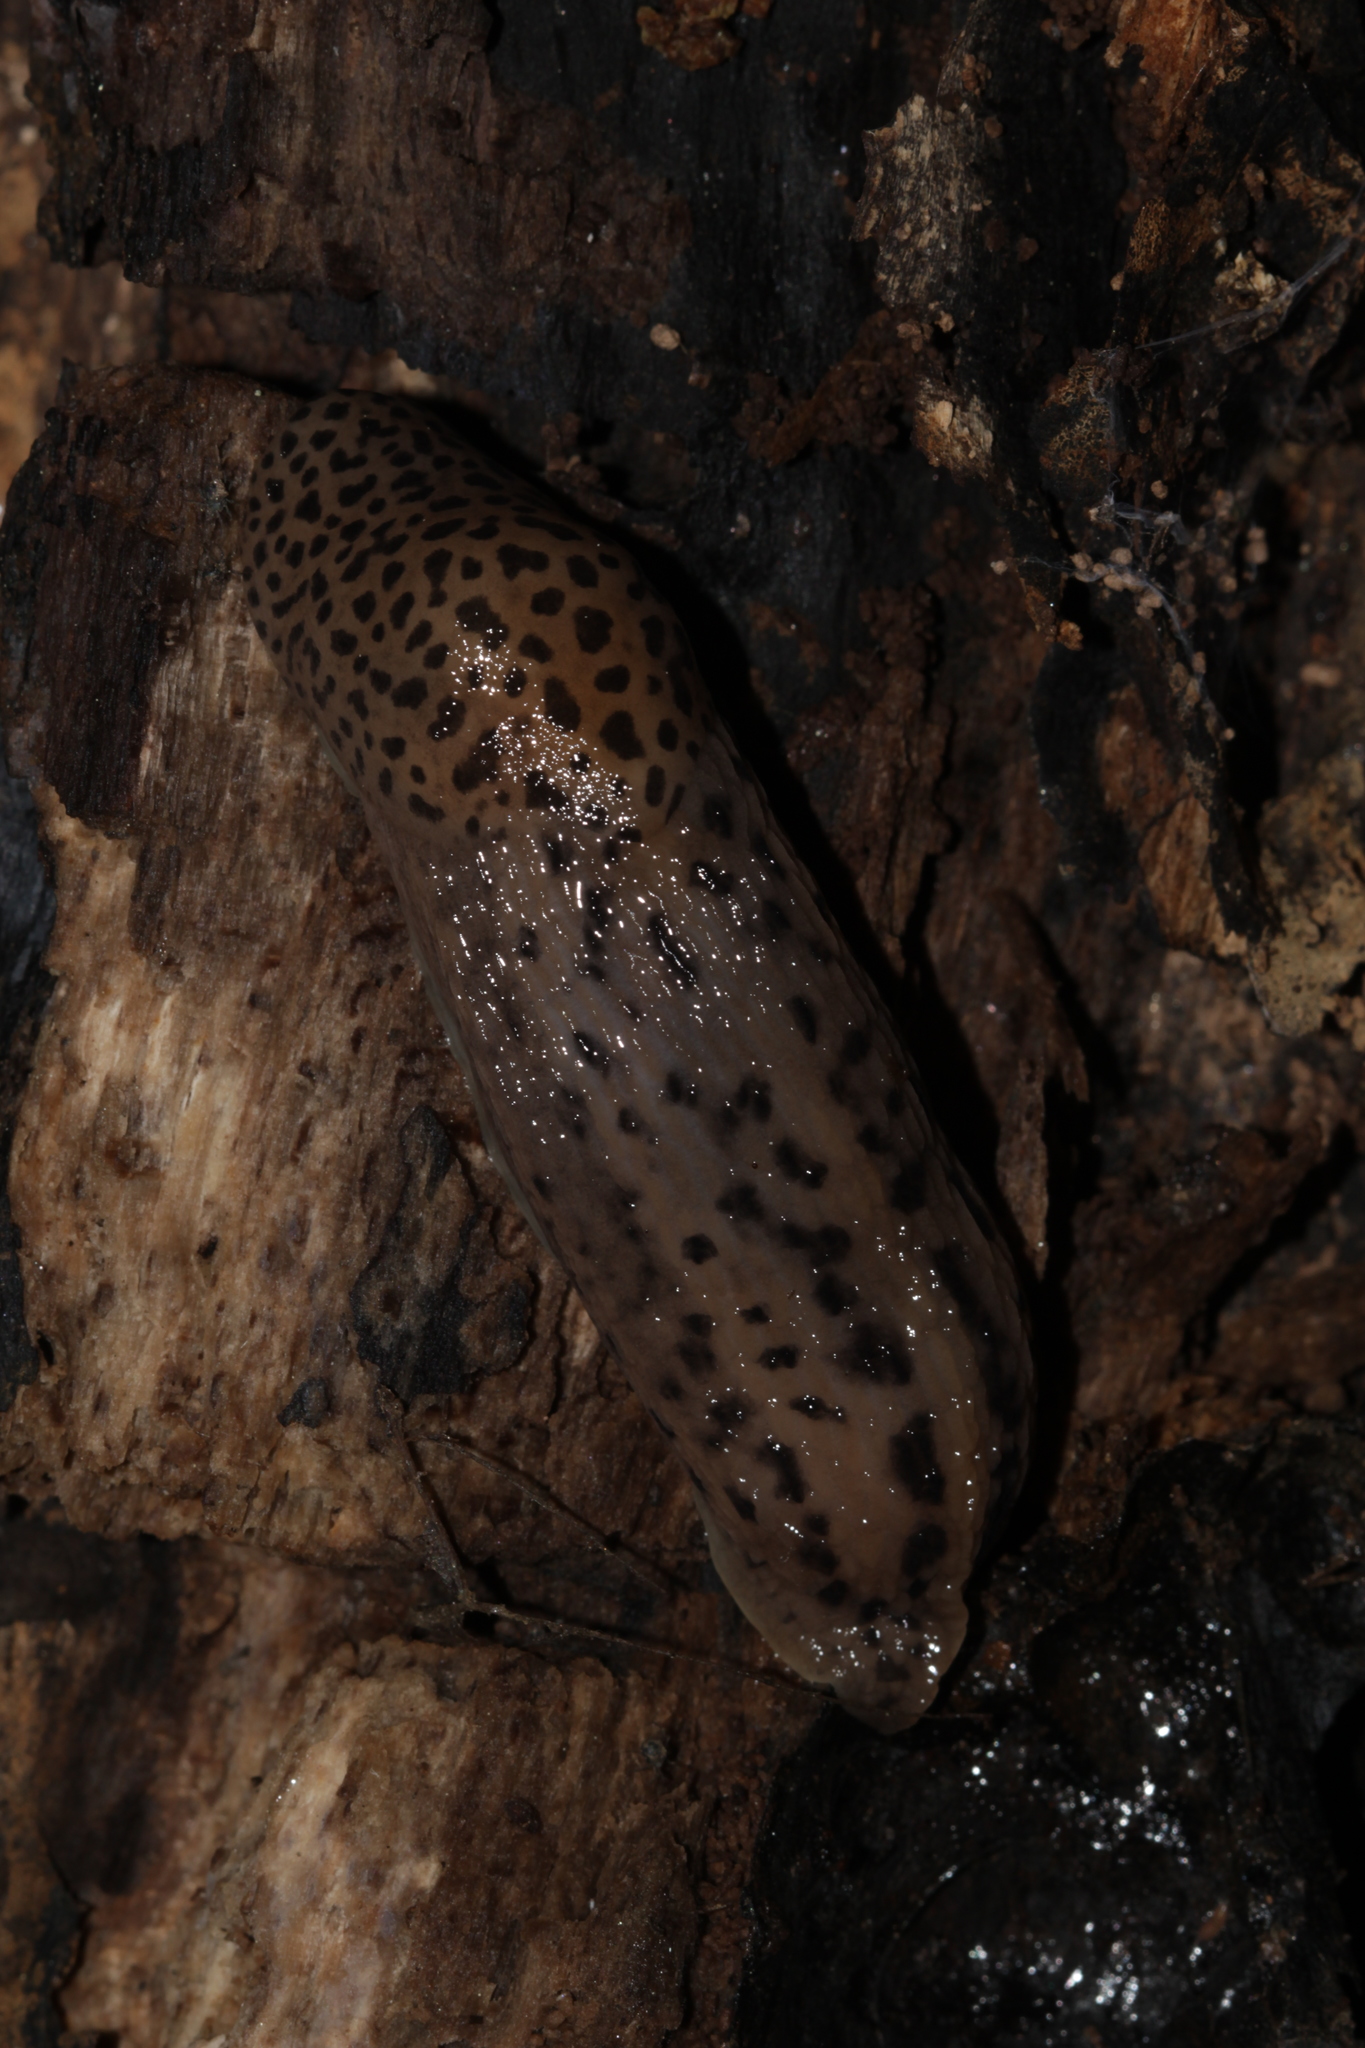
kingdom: Animalia
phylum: Mollusca
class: Gastropoda
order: Stylommatophora
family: Limacidae
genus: Limax
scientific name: Limax maximus
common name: Great grey slug
